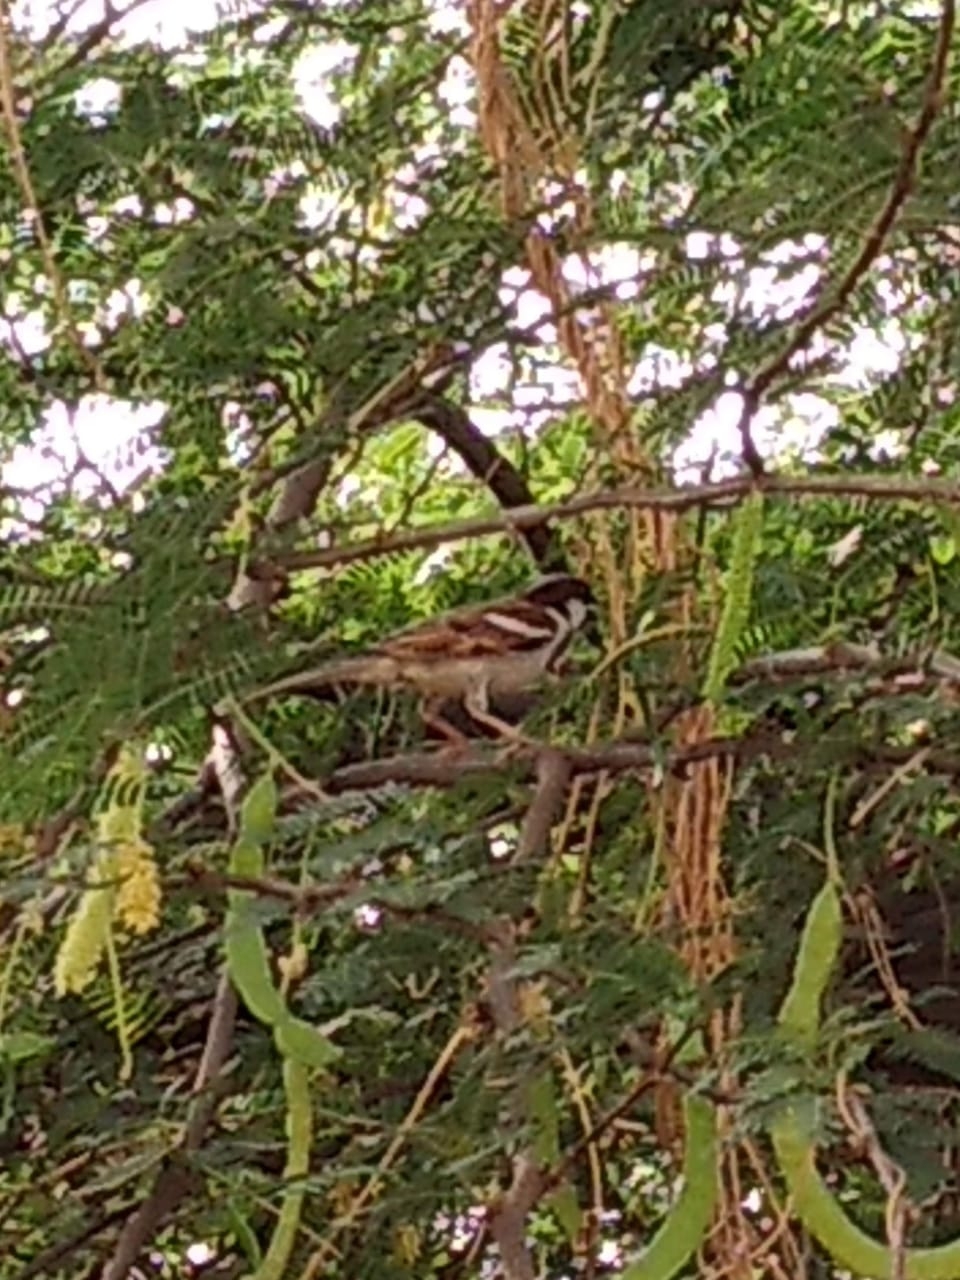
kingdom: Animalia
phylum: Chordata
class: Aves
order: Passeriformes
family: Passeridae
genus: Passer
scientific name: Passer domesticus
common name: House sparrow
